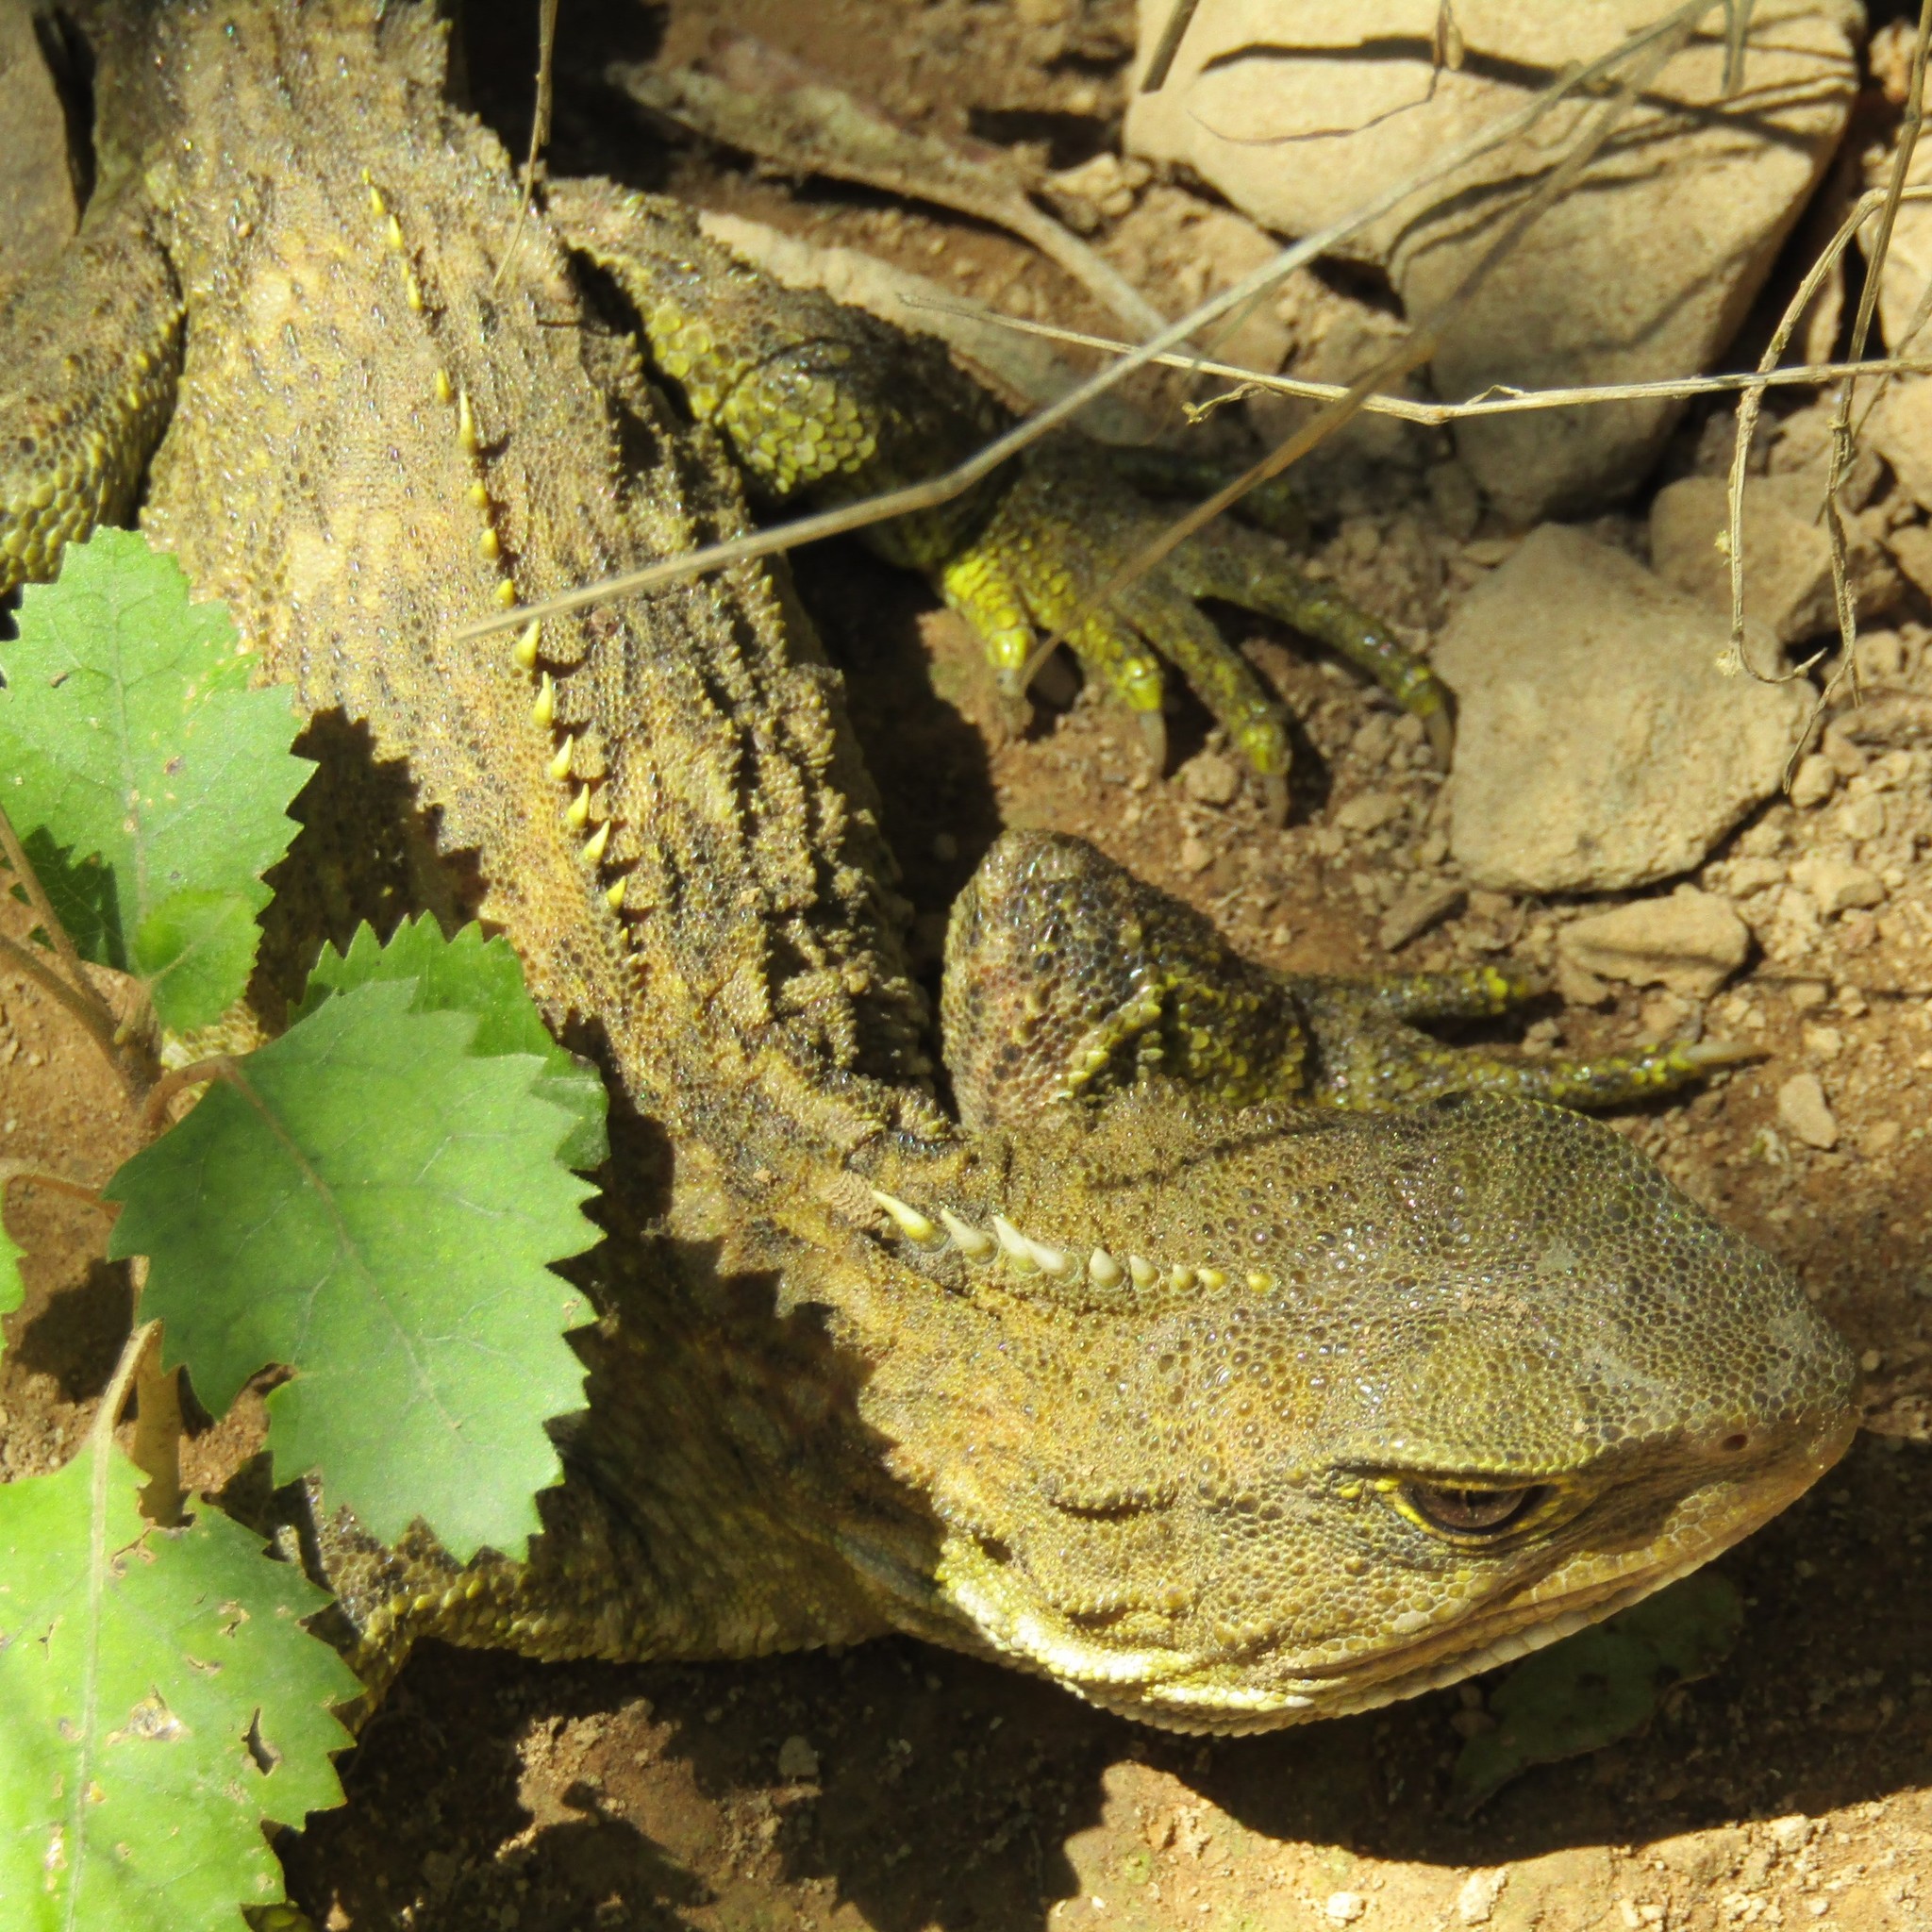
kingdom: Animalia
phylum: Chordata
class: Sphenodontia
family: Sphenodontidae
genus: Sphenodon
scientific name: Sphenodon punctatus
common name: Tuatara
